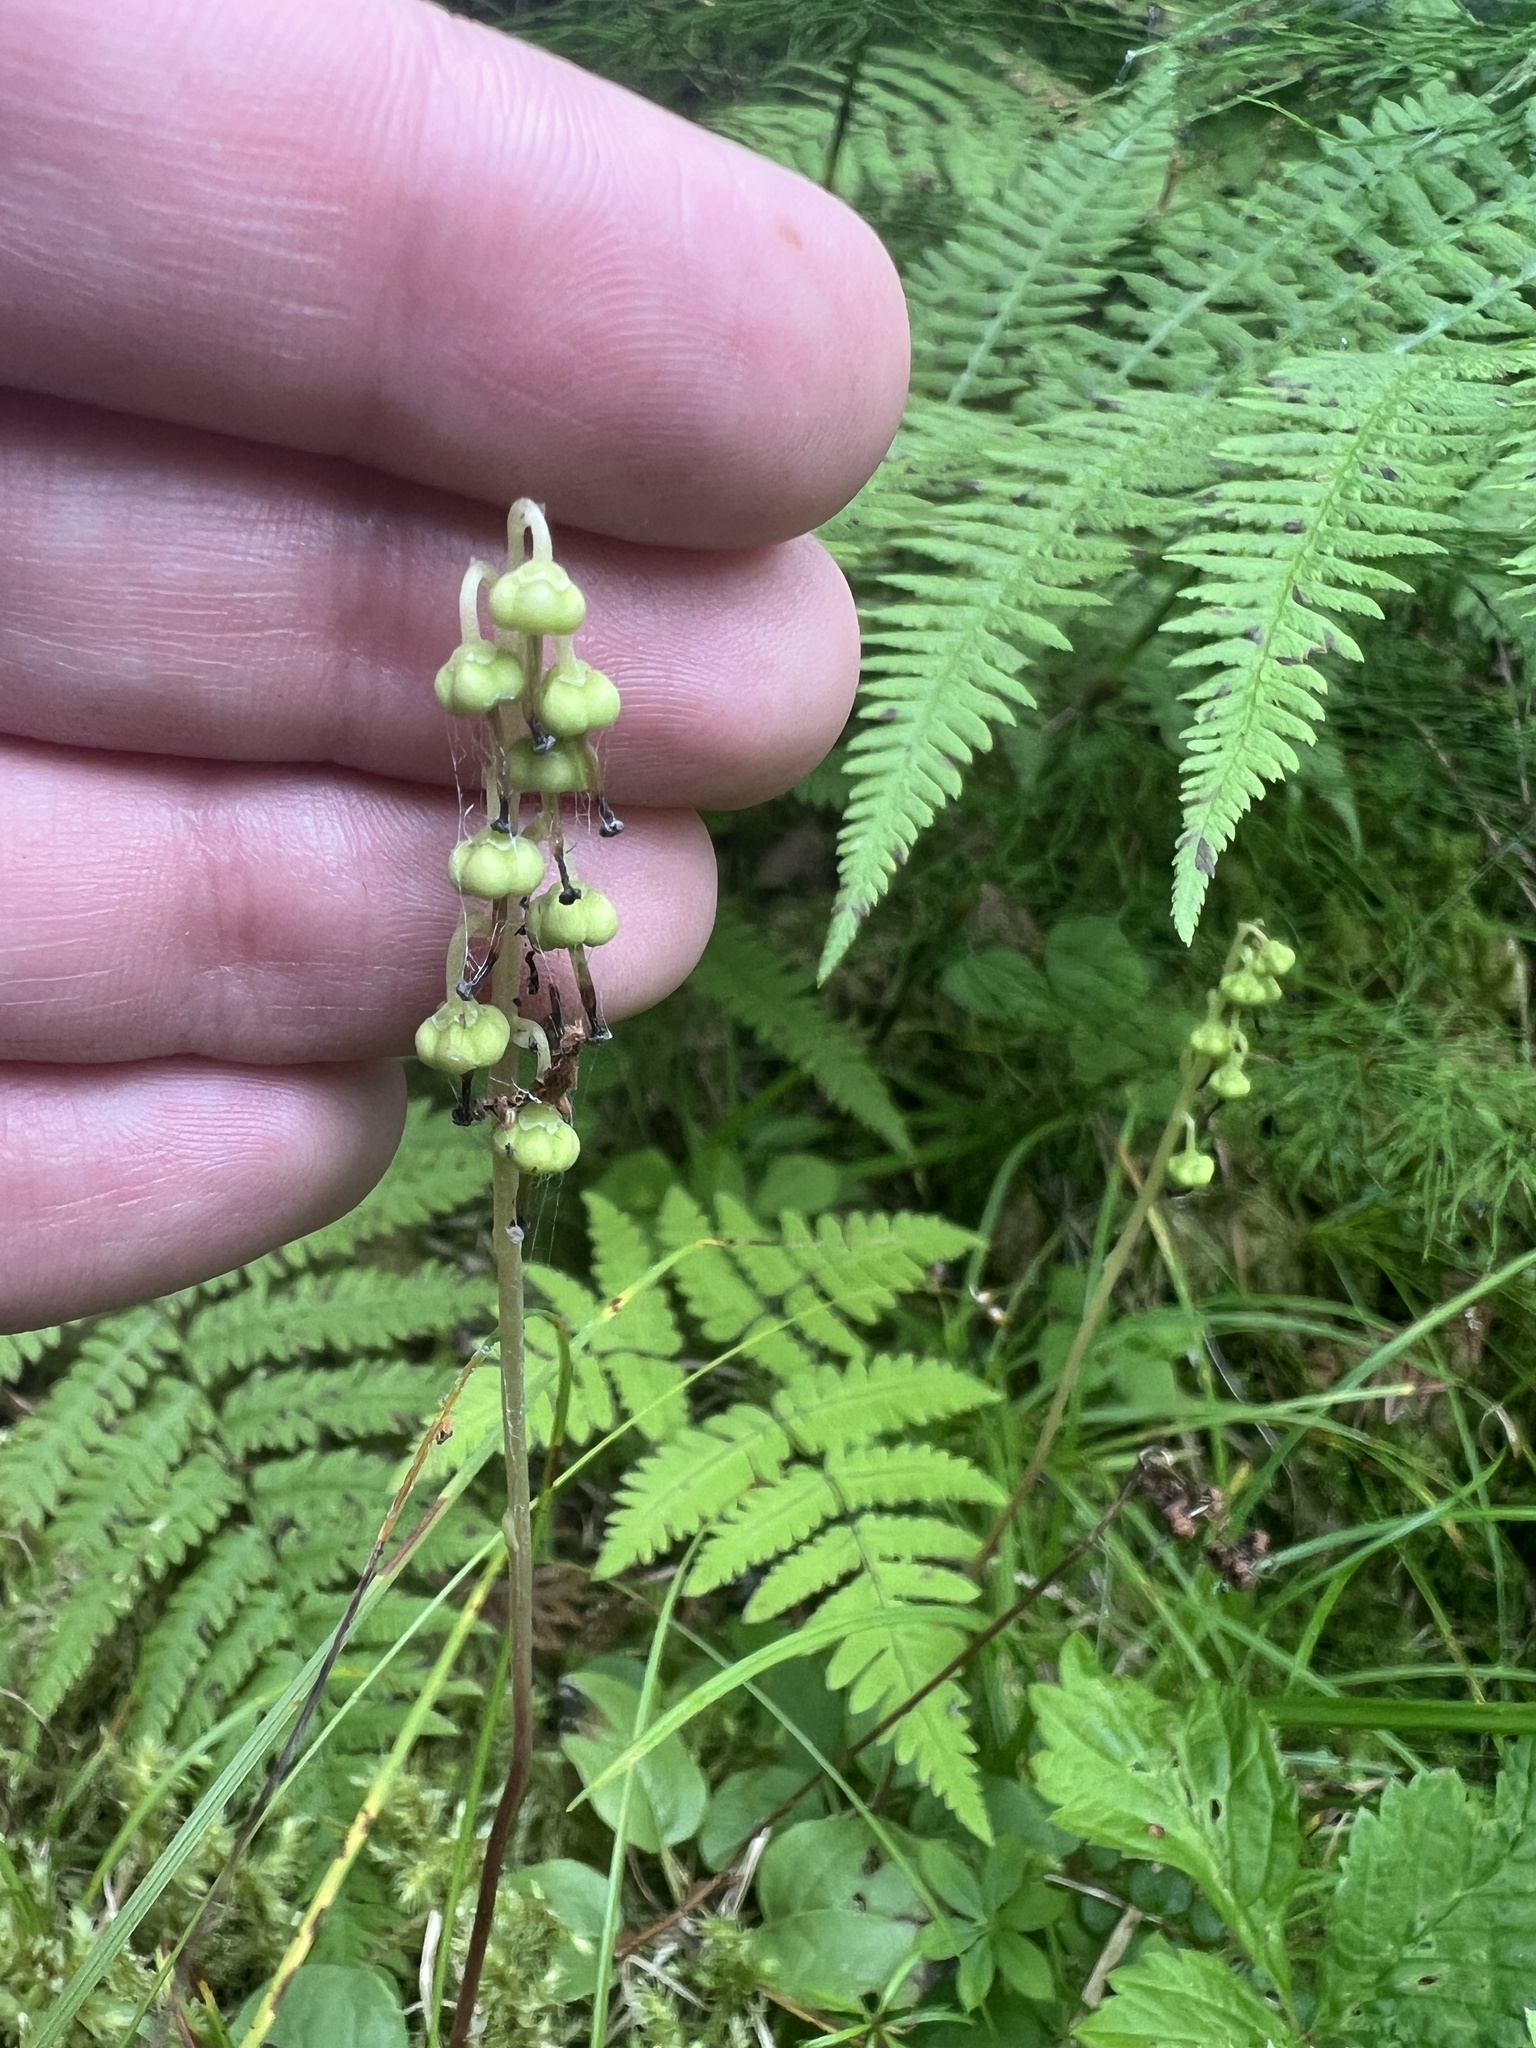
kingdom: Plantae
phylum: Tracheophyta
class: Magnoliopsida
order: Ericales
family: Ericaceae
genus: Orthilia
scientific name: Orthilia secunda
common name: One-sided orthilia
